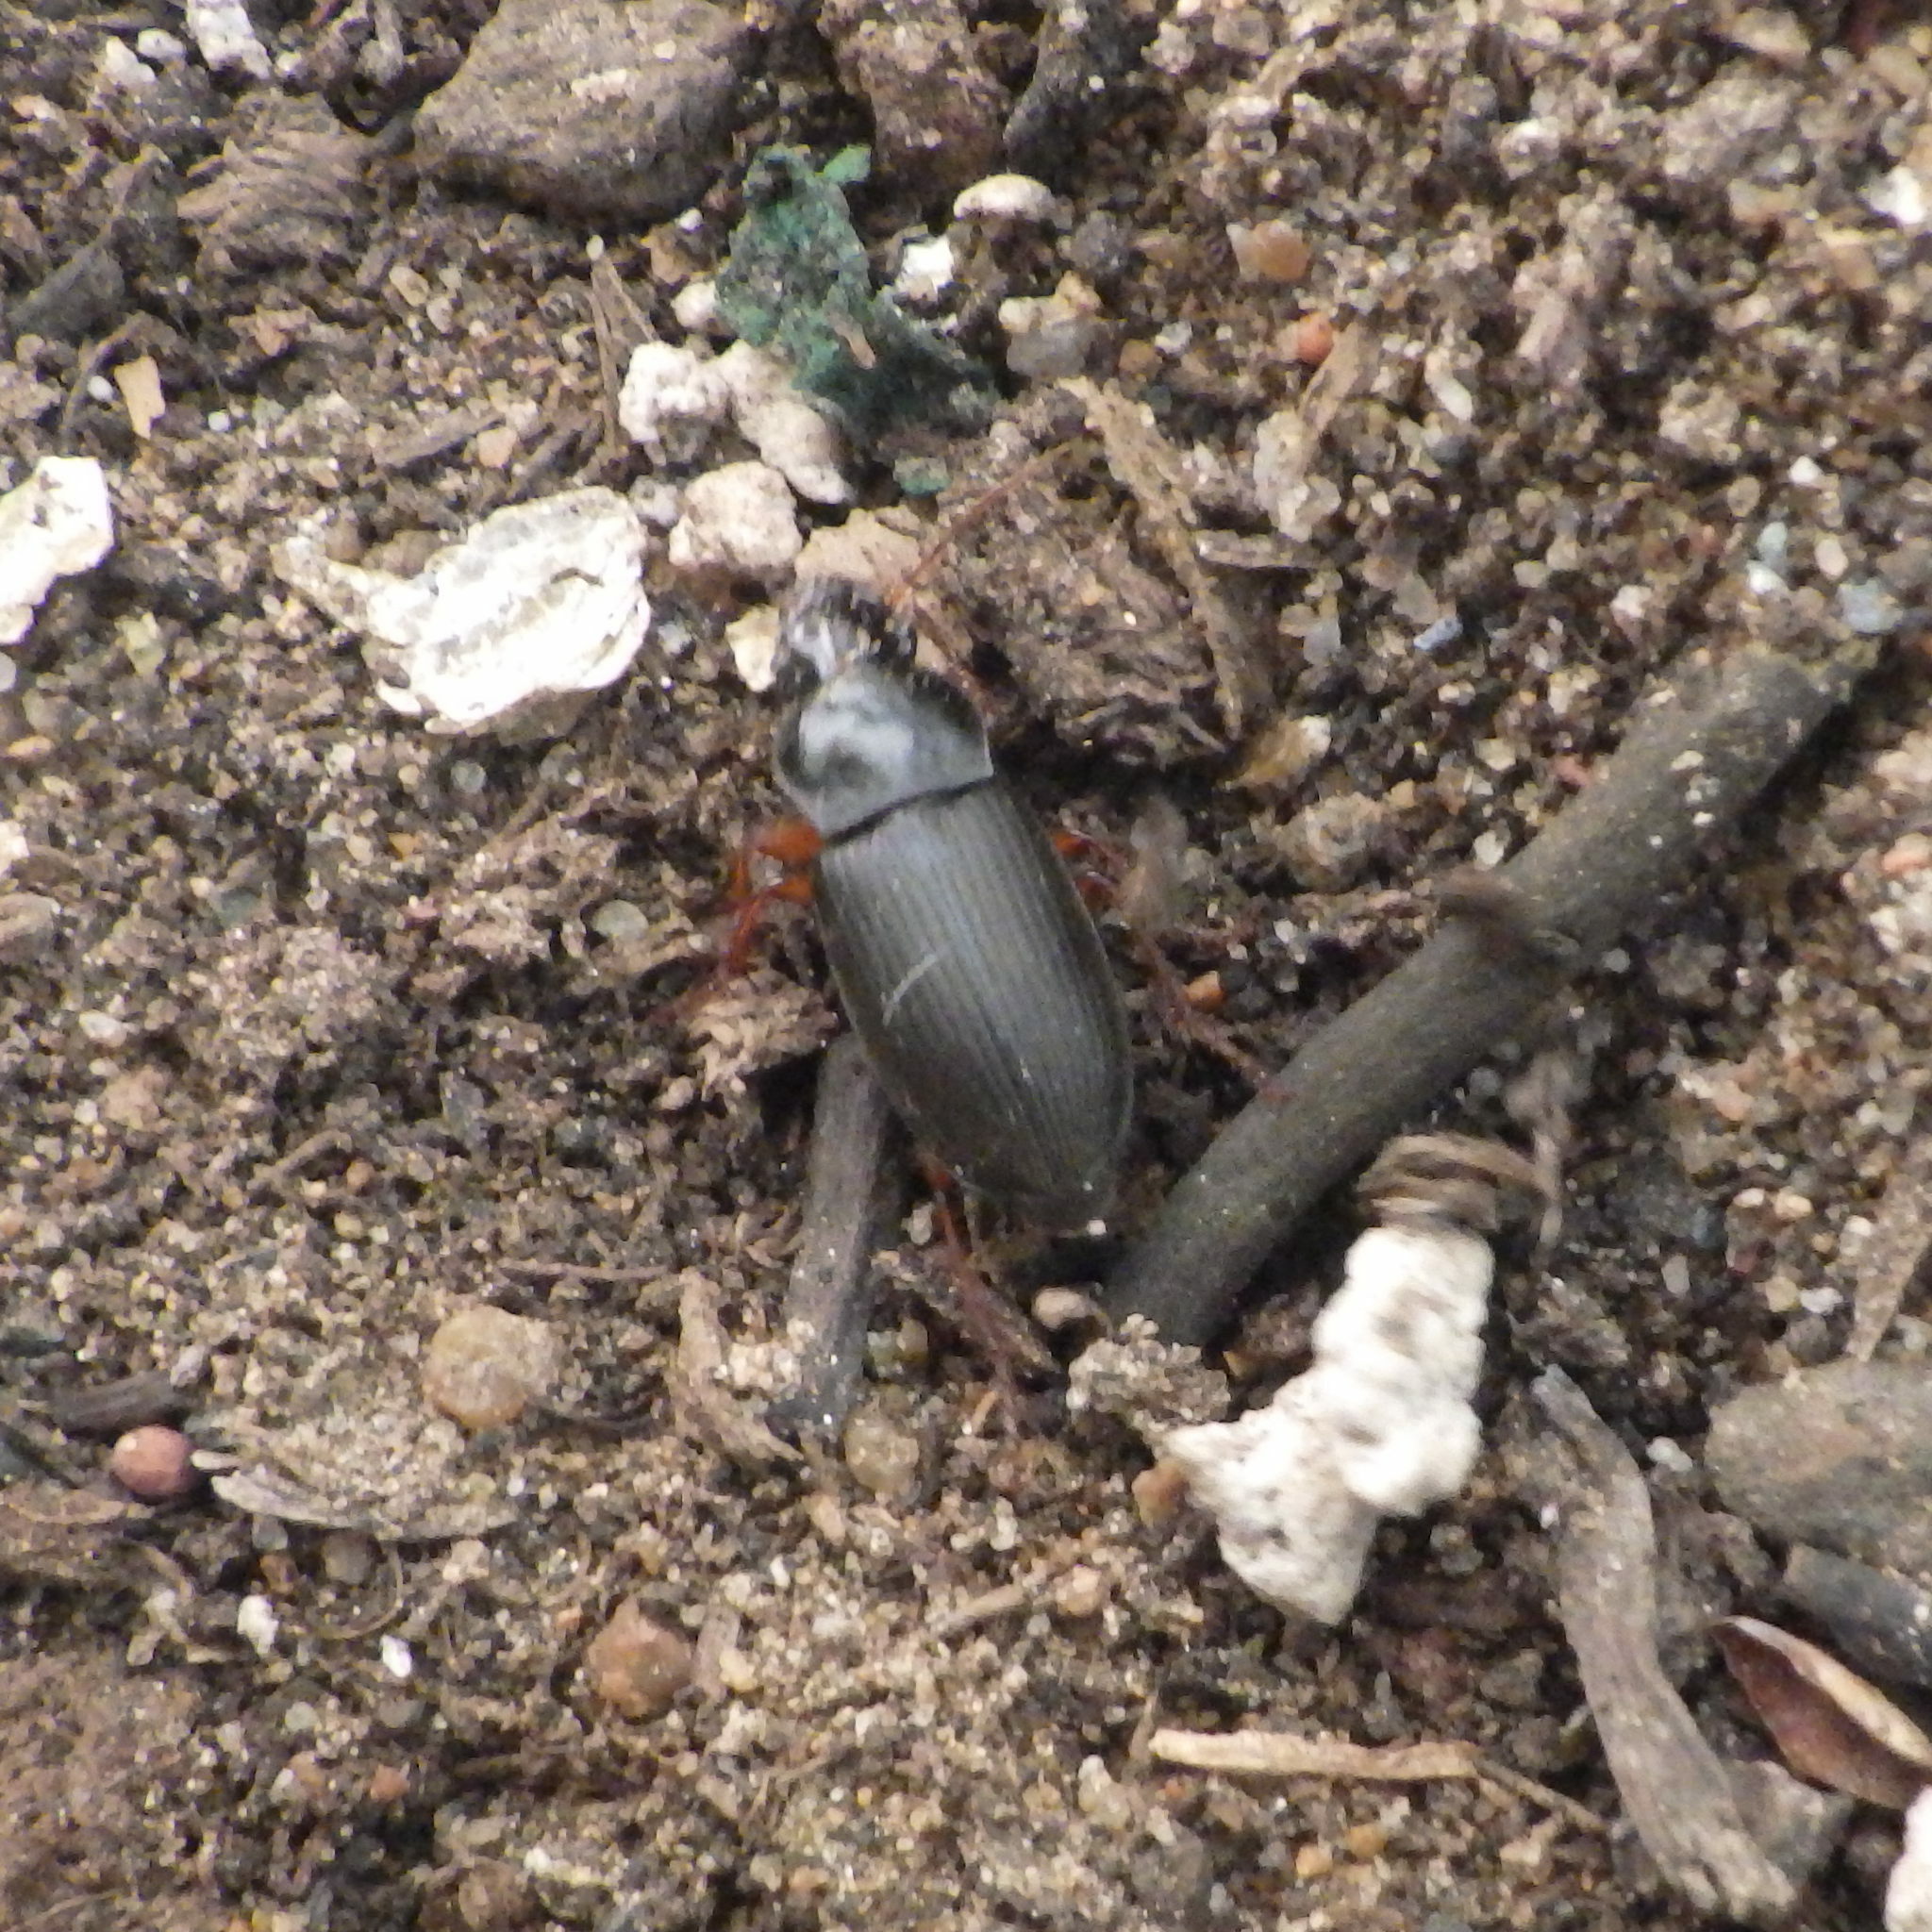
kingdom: Animalia
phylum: Arthropoda
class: Insecta
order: Coleoptera
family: Carabidae
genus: Harpalus
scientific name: Harpalus rufipes
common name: Strawberry harp ground beetle
